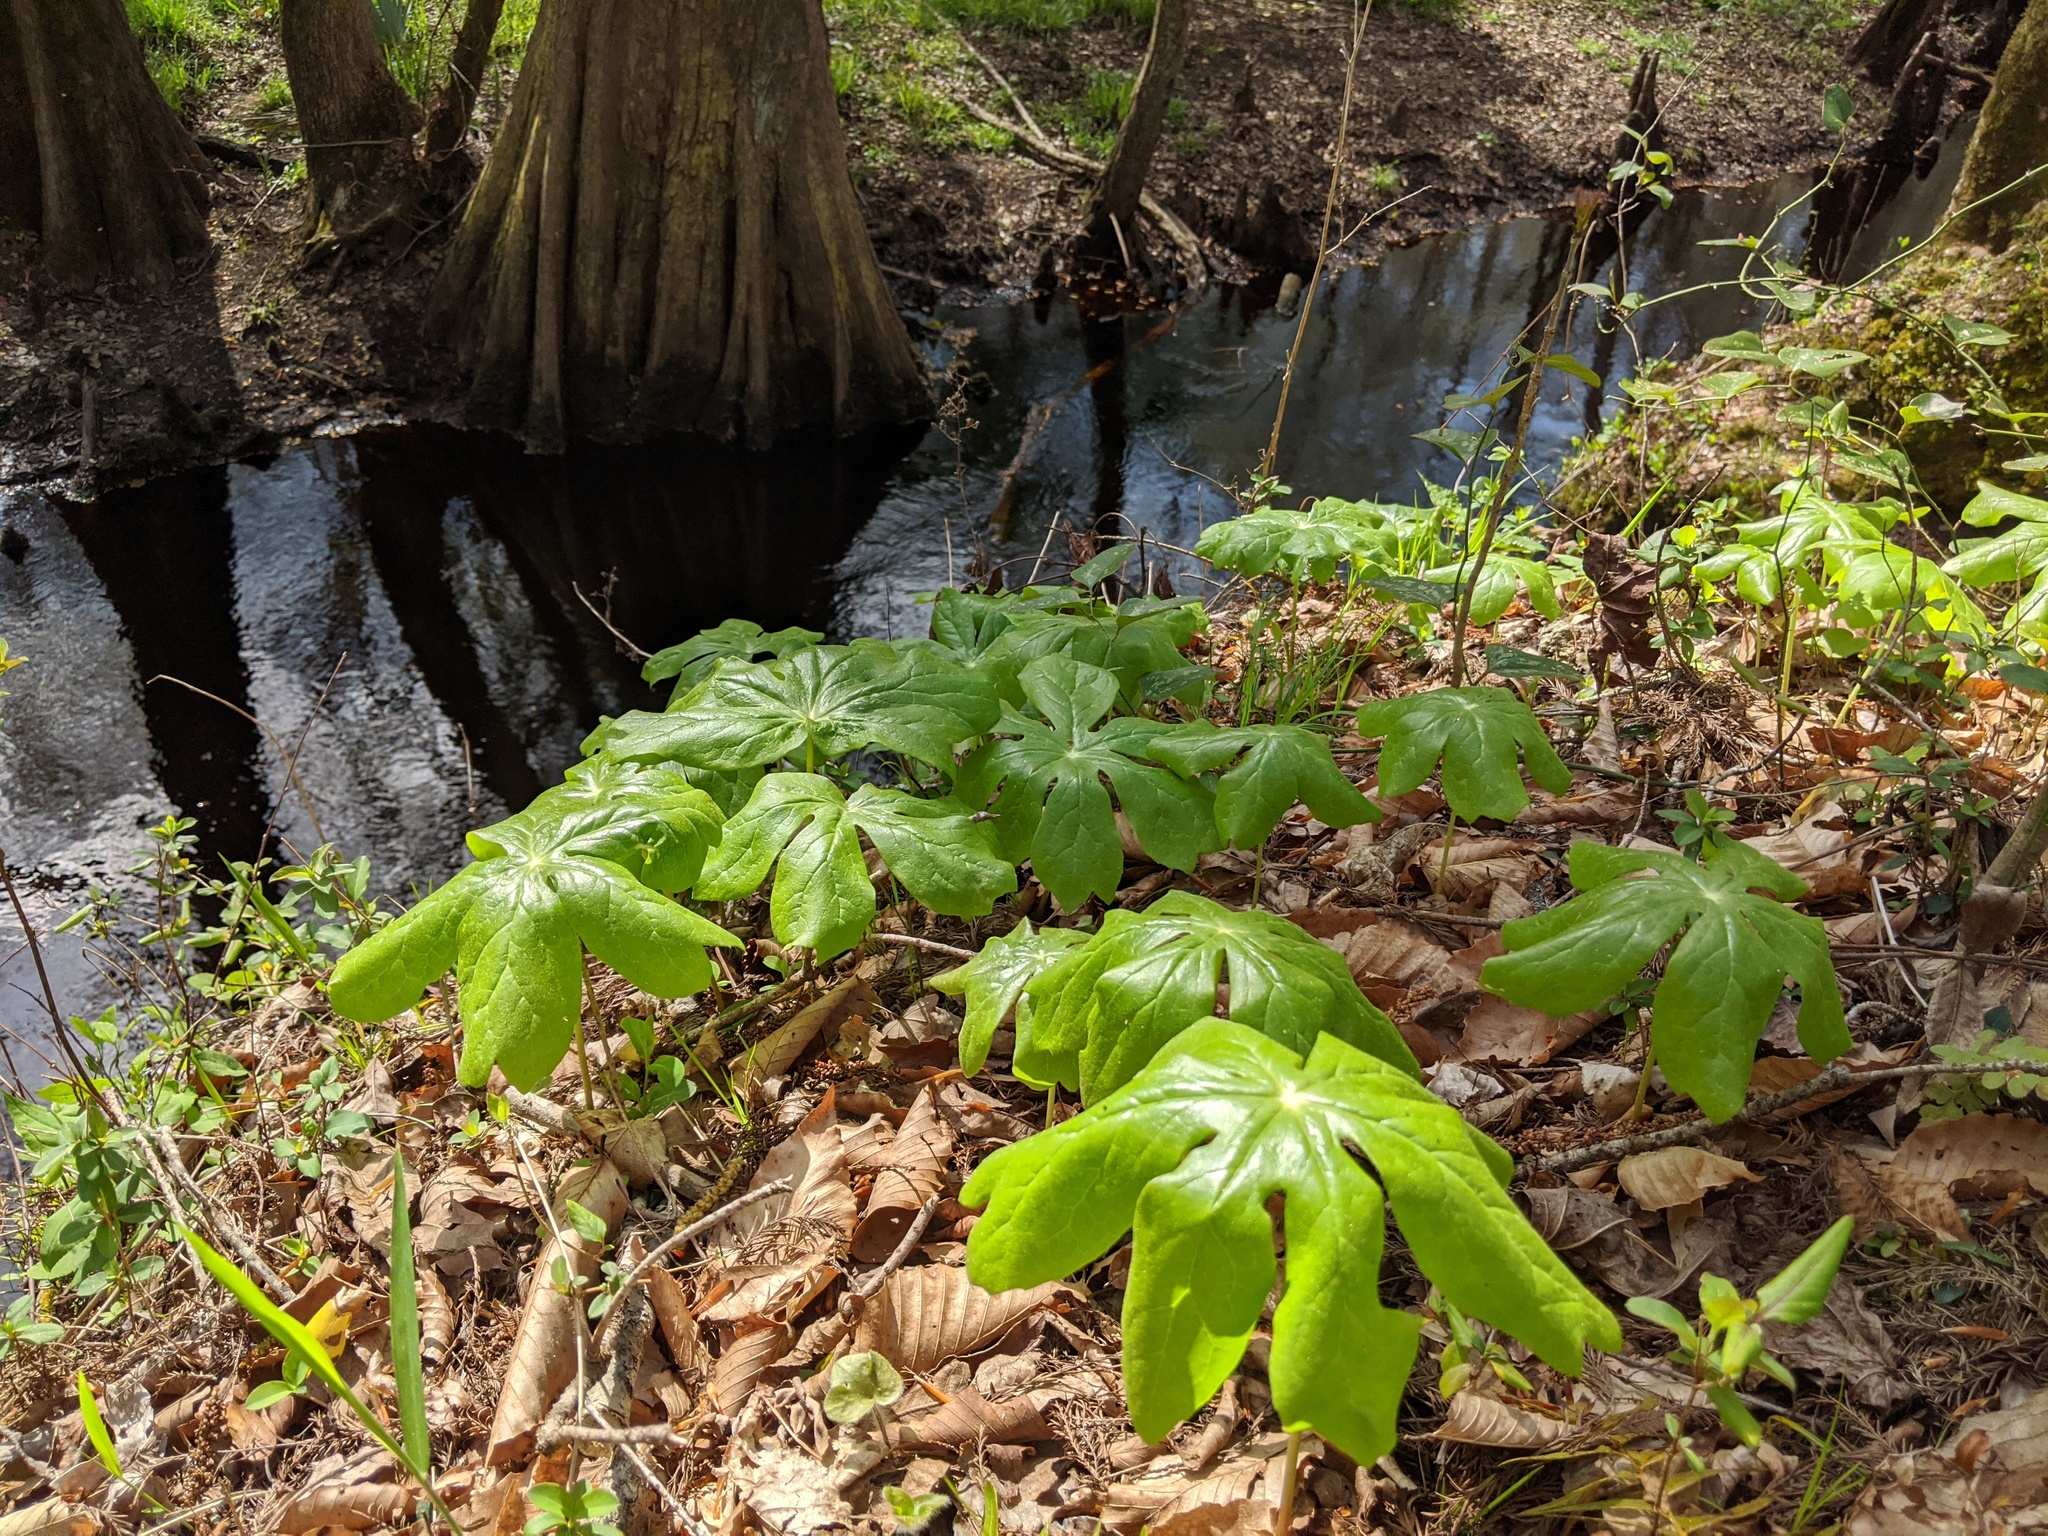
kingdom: Plantae
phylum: Tracheophyta
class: Magnoliopsida
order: Ranunculales
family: Berberidaceae
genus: Podophyllum
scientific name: Podophyllum peltatum
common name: Wild mandrake
